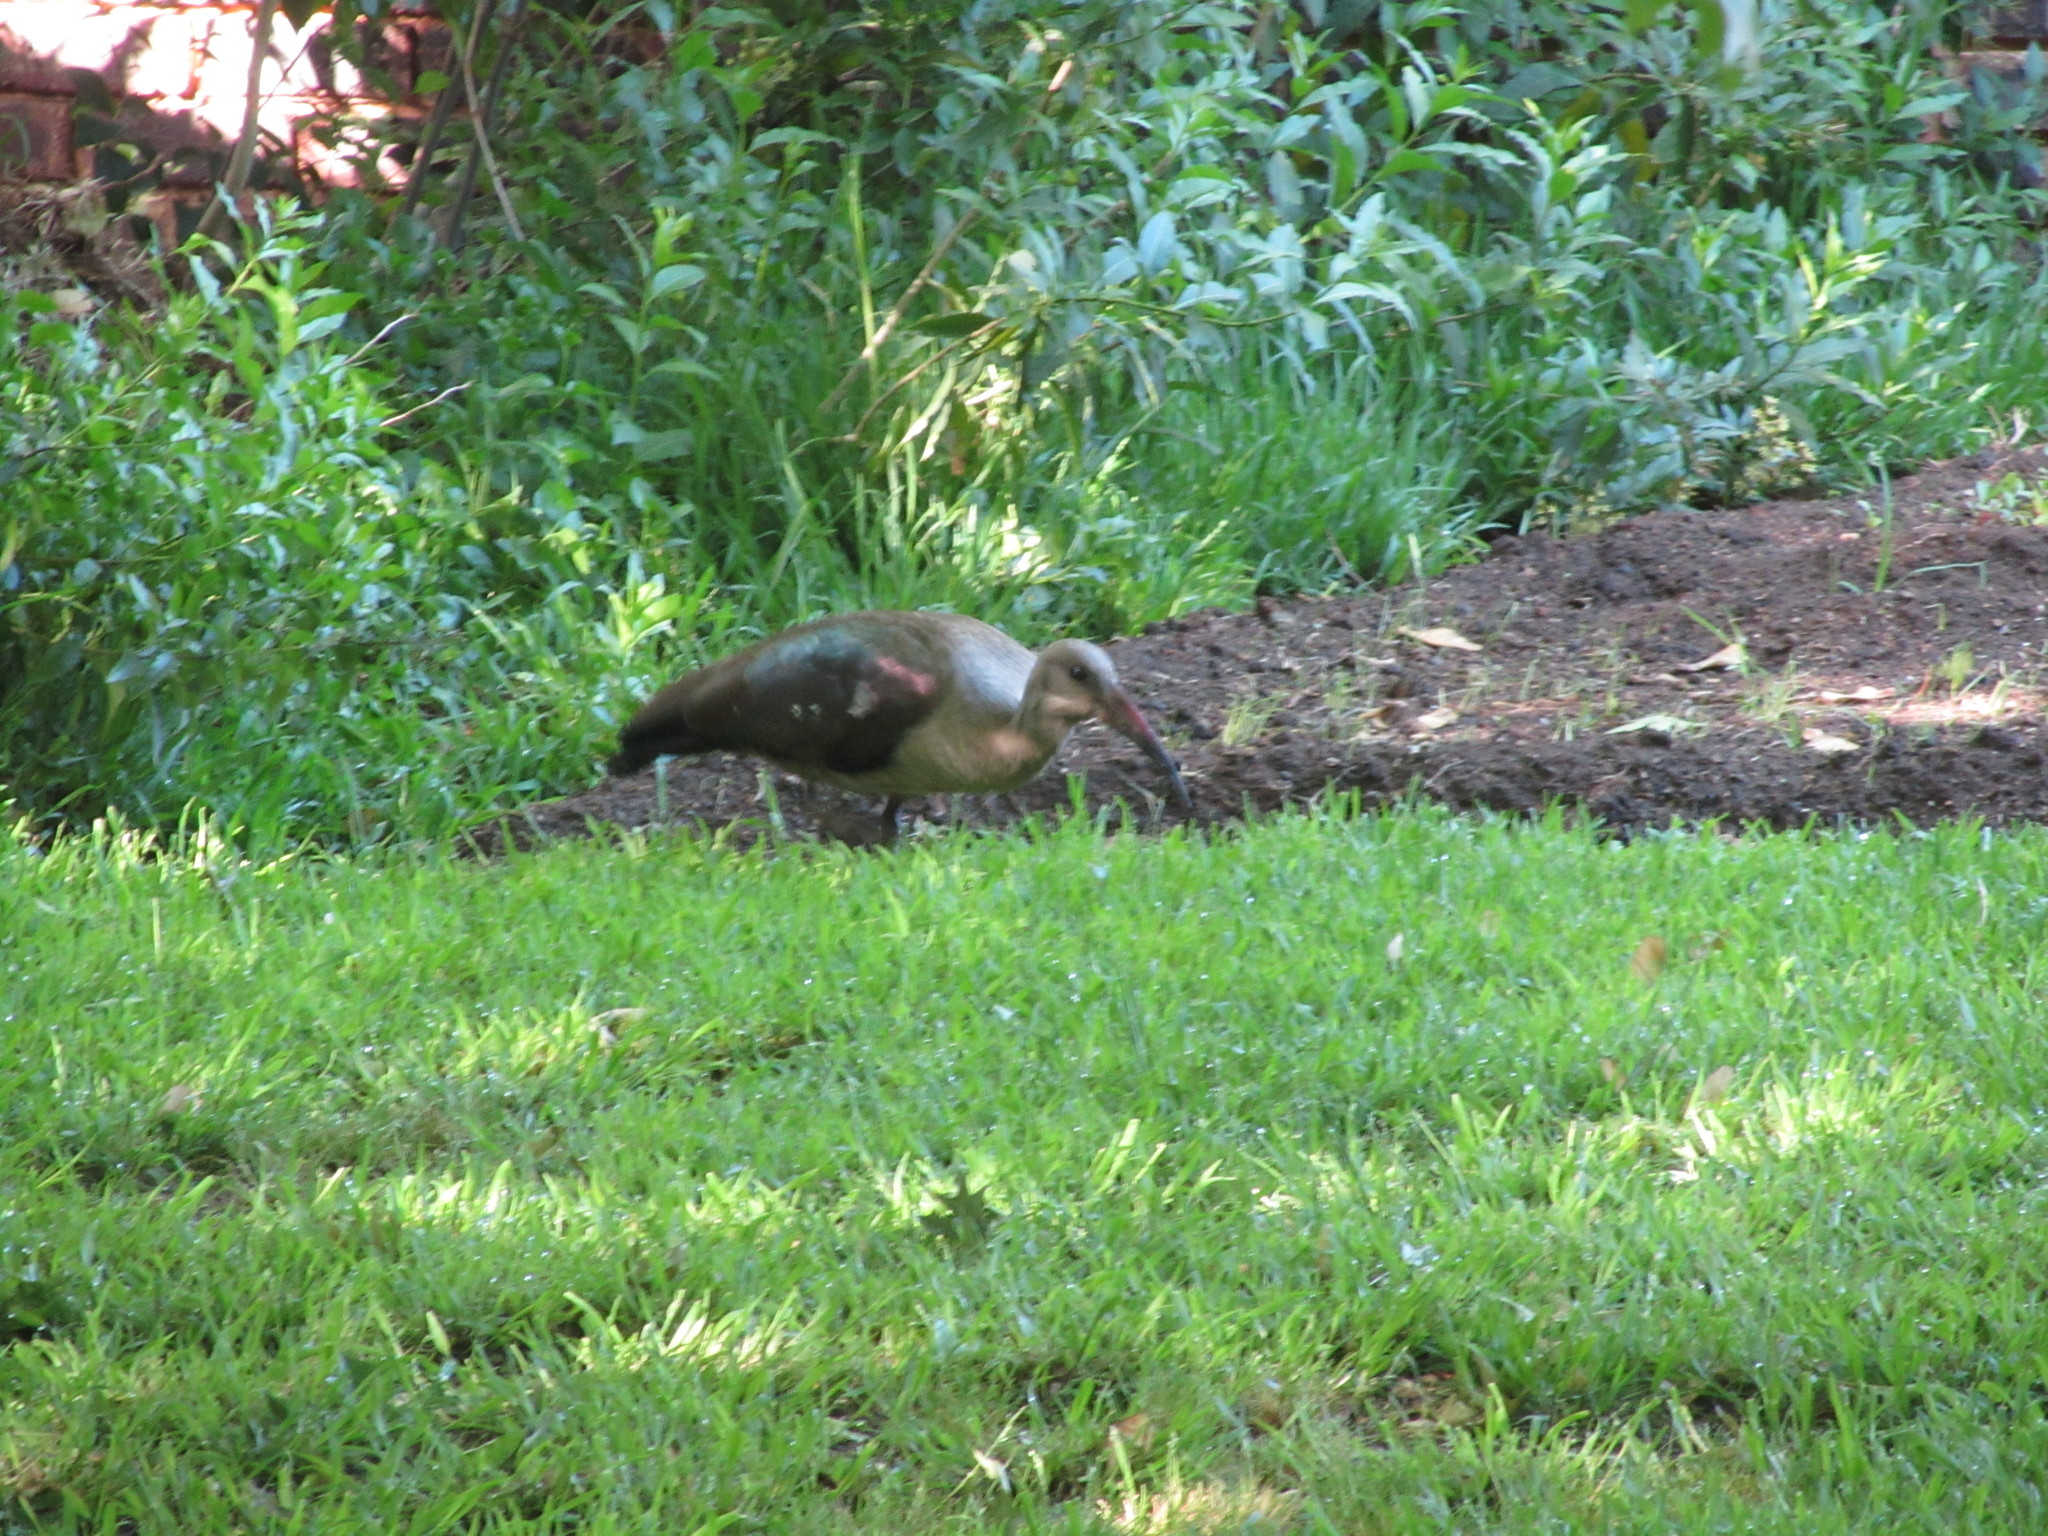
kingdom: Animalia
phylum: Chordata
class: Aves
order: Pelecaniformes
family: Threskiornithidae
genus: Bostrychia
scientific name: Bostrychia hagedash
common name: Hadada ibis
